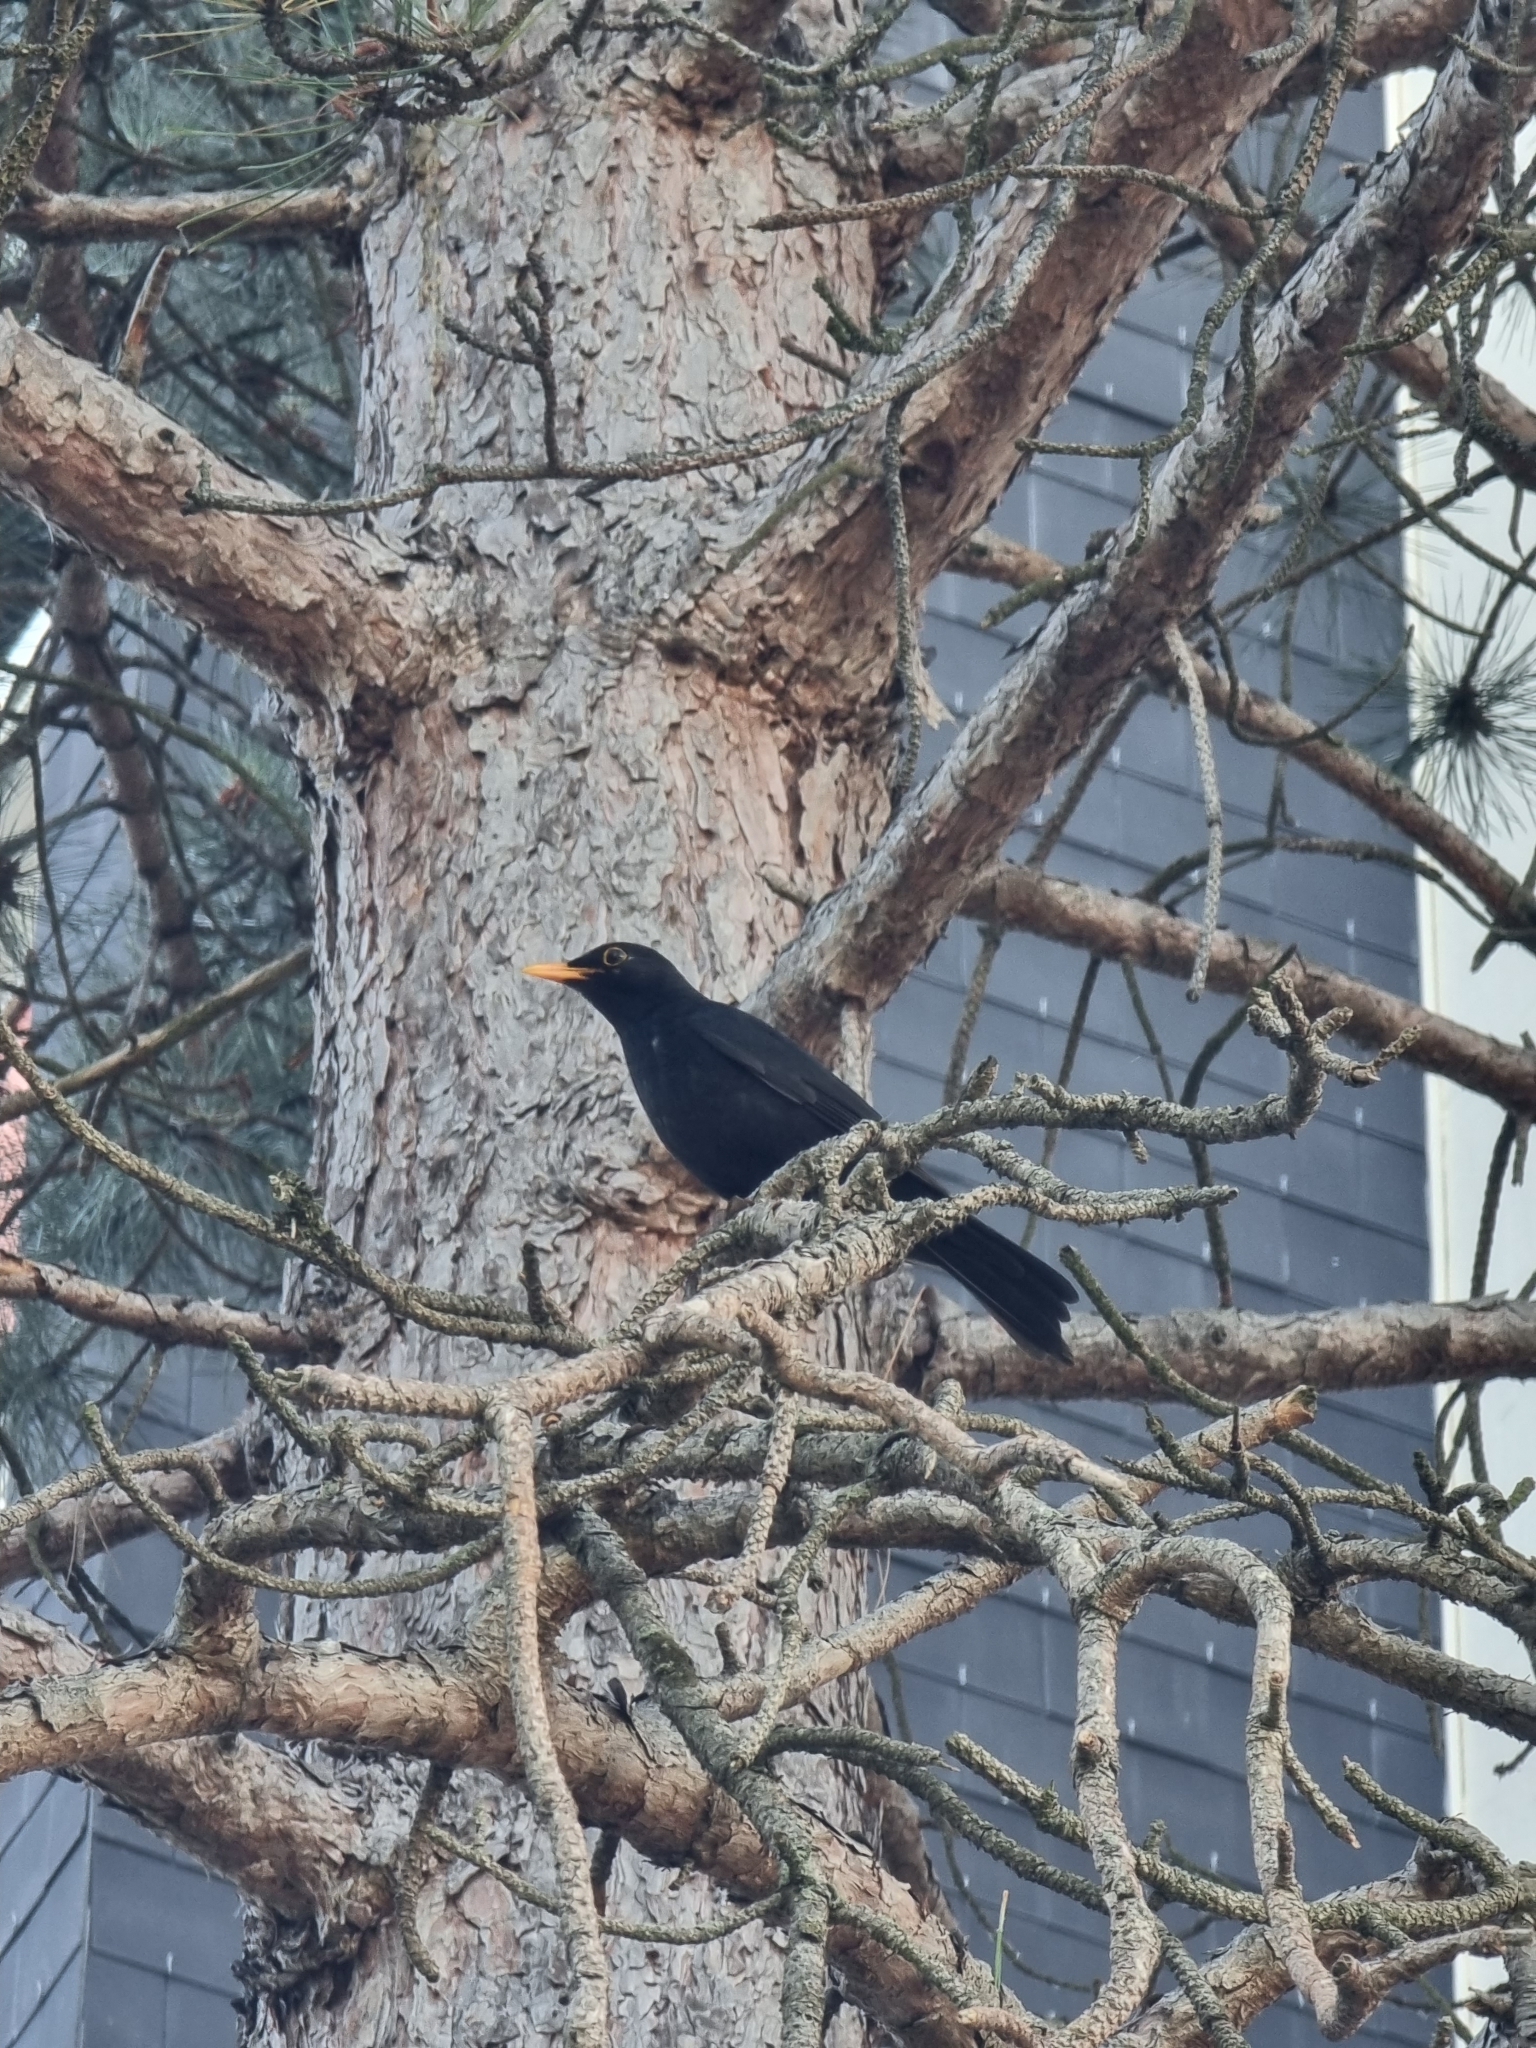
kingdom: Animalia
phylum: Chordata
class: Aves
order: Passeriformes
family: Turdidae
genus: Turdus
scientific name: Turdus merula
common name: Common blackbird
